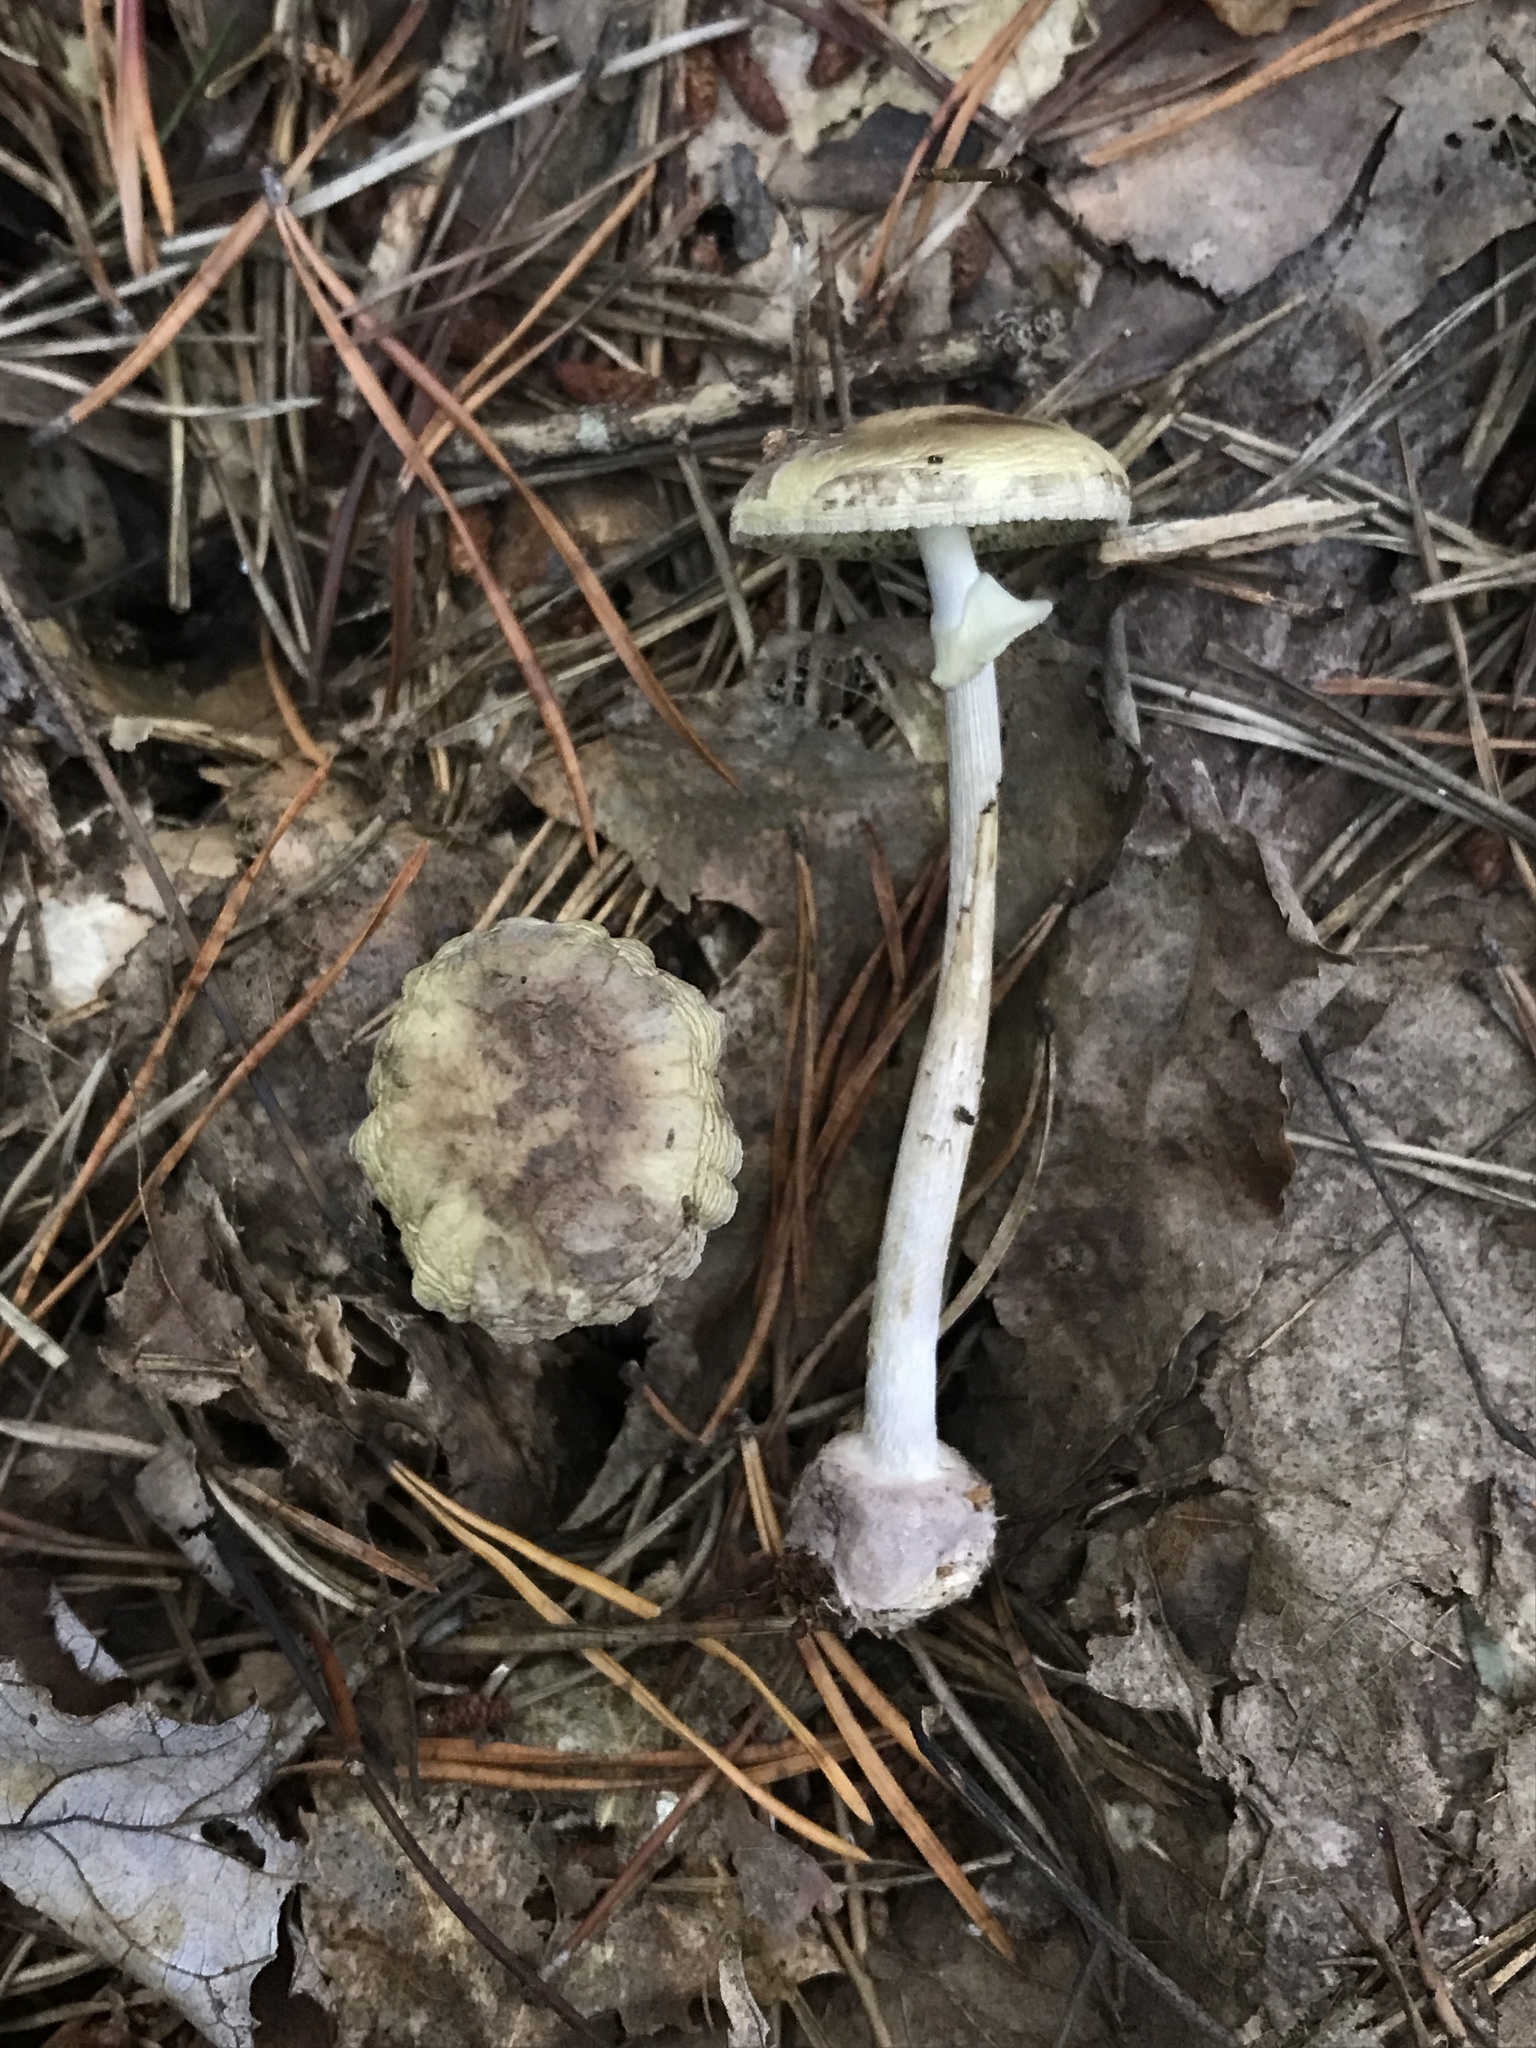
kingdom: Fungi
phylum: Basidiomycota
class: Agaricomycetes
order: Agaricales
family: Amanitaceae
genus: Amanita
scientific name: Amanita lavendula
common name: Coker's lavender staining amanita
